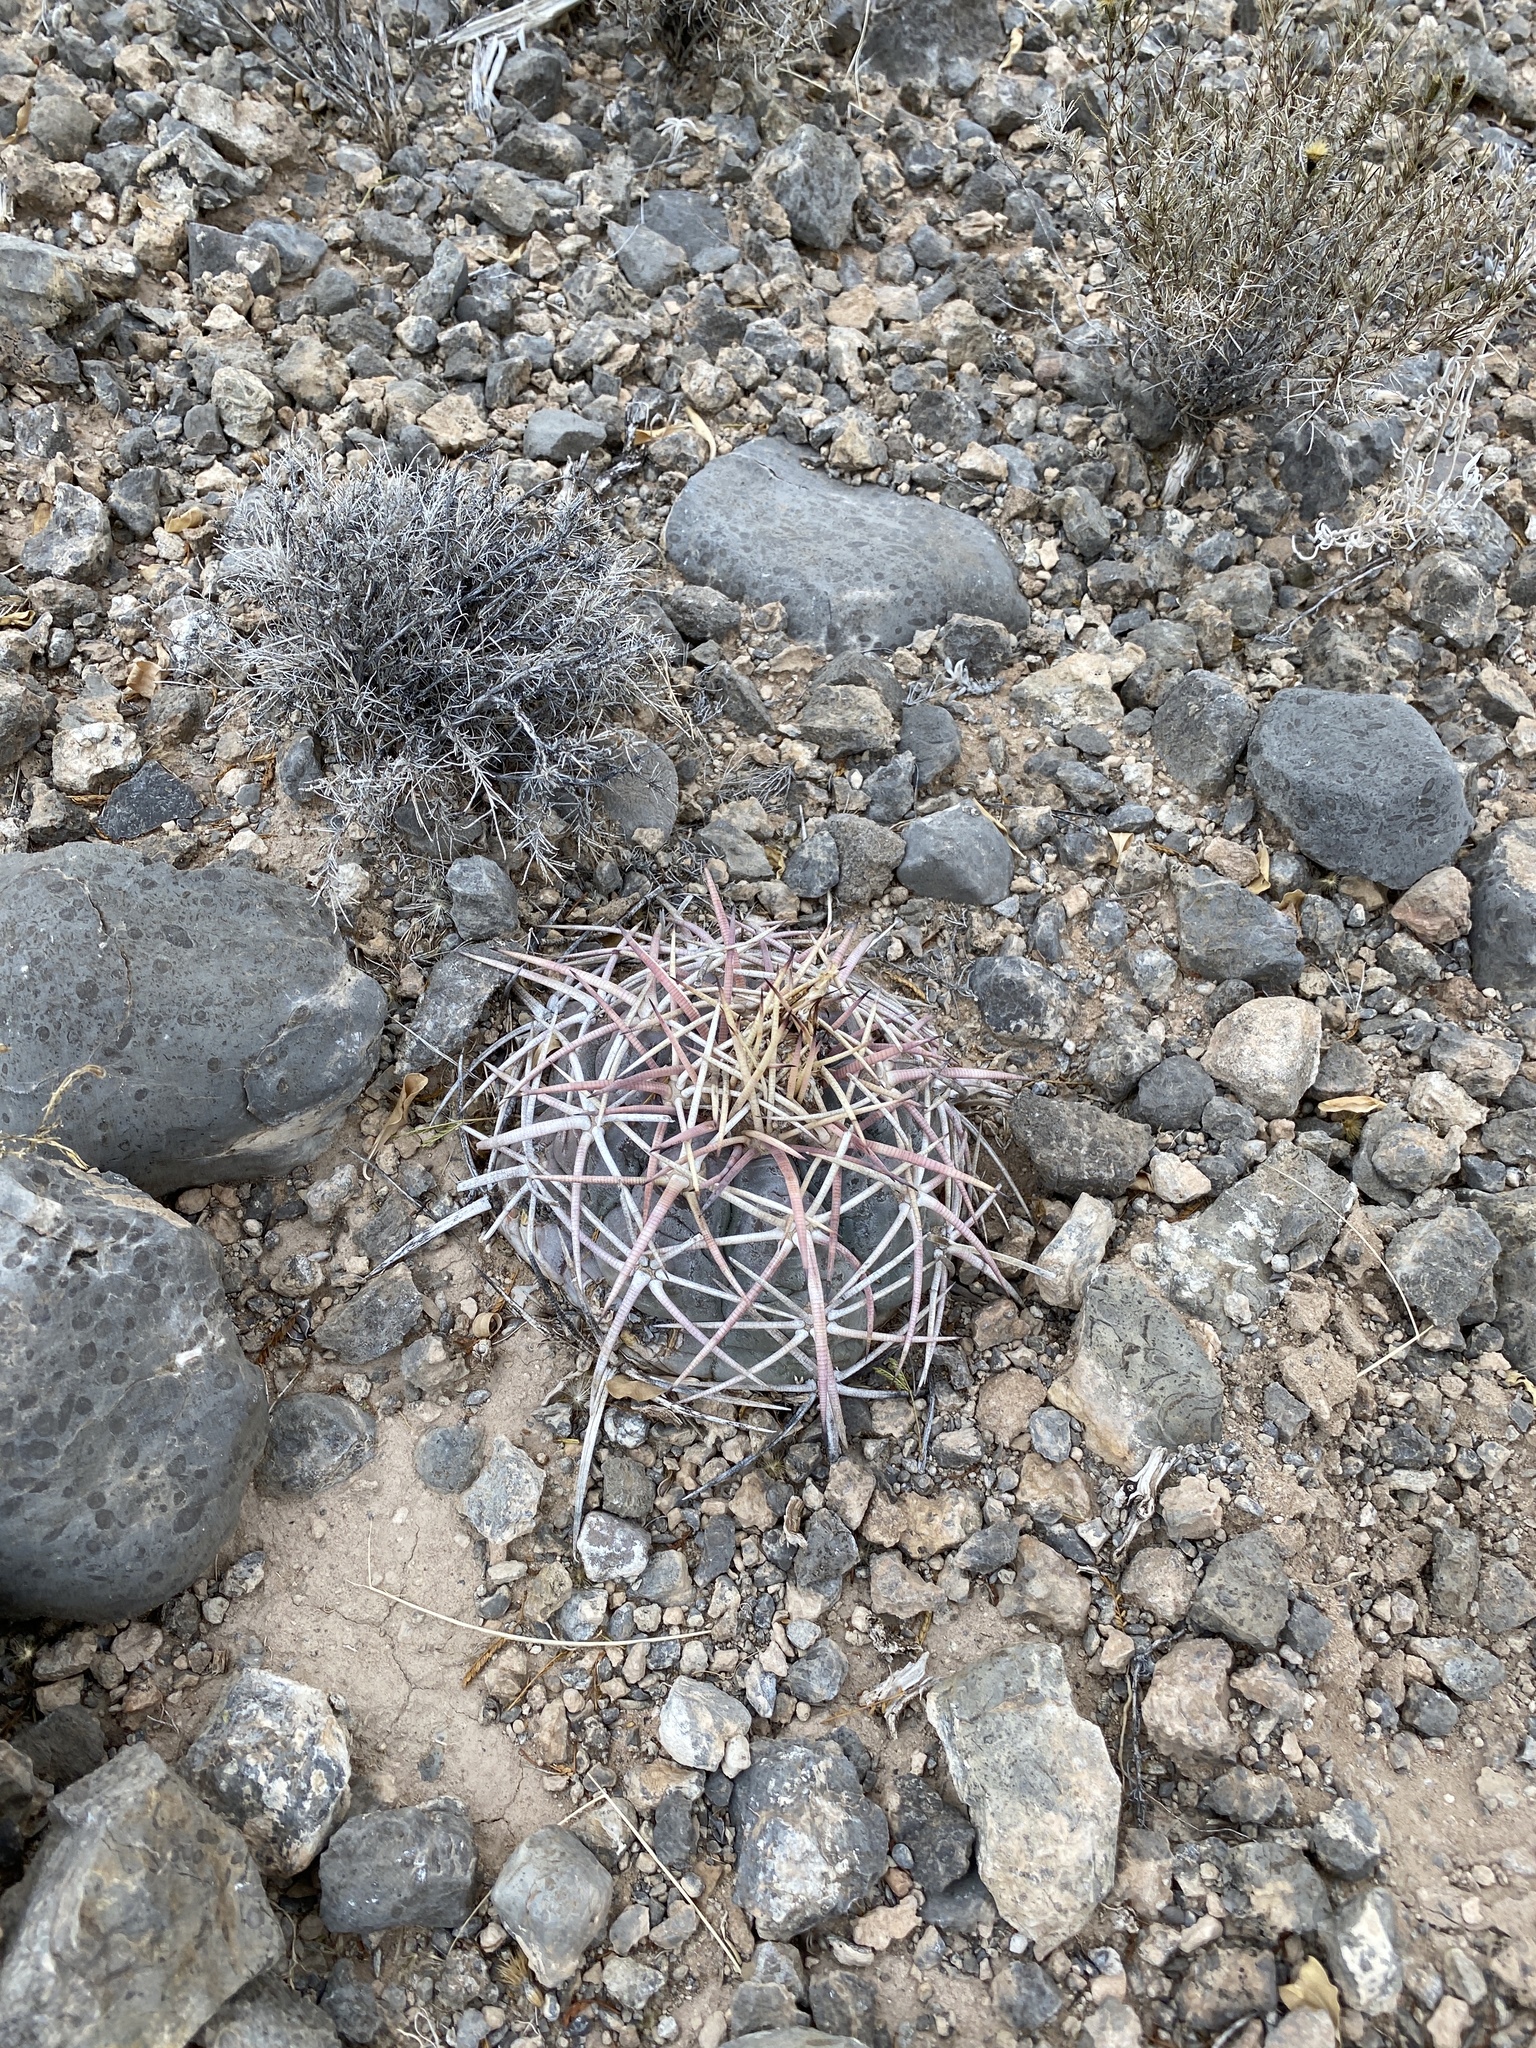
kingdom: Plantae
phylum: Tracheophyta
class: Magnoliopsida
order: Caryophyllales
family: Cactaceae
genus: Echinocactus
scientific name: Echinocactus horizonthalonius
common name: Devilshead
